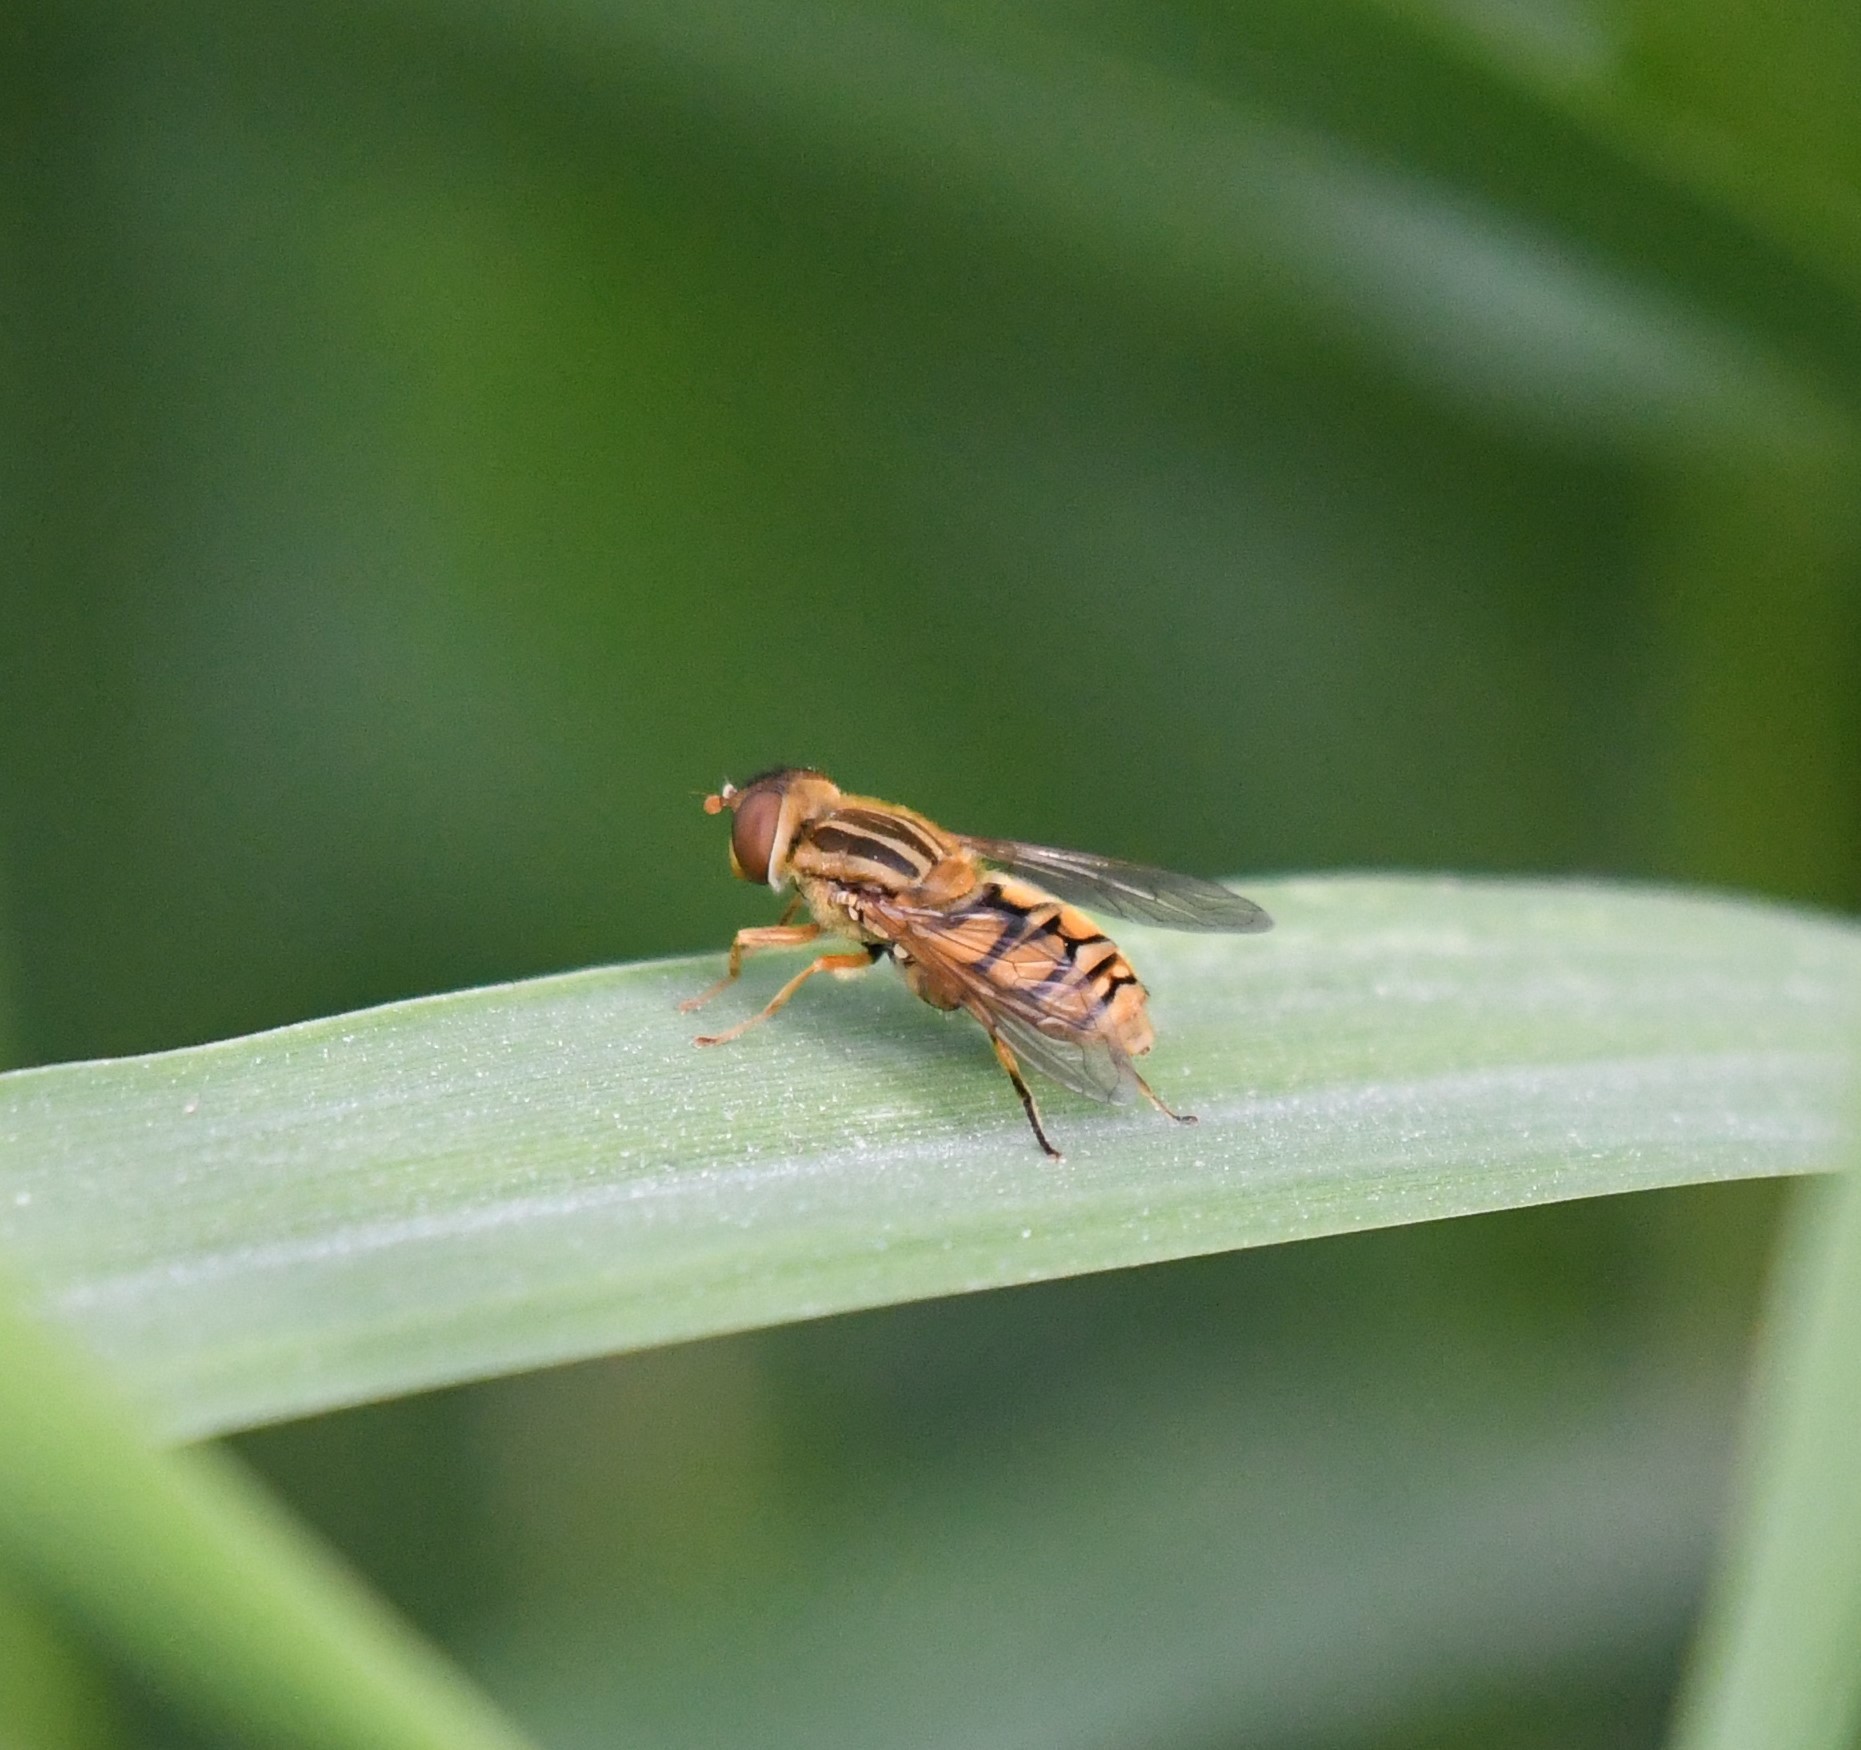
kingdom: Animalia
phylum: Arthropoda
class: Insecta
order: Diptera
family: Syrphidae
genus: Parhelophilus
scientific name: Parhelophilus laetus
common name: Common bog fly
